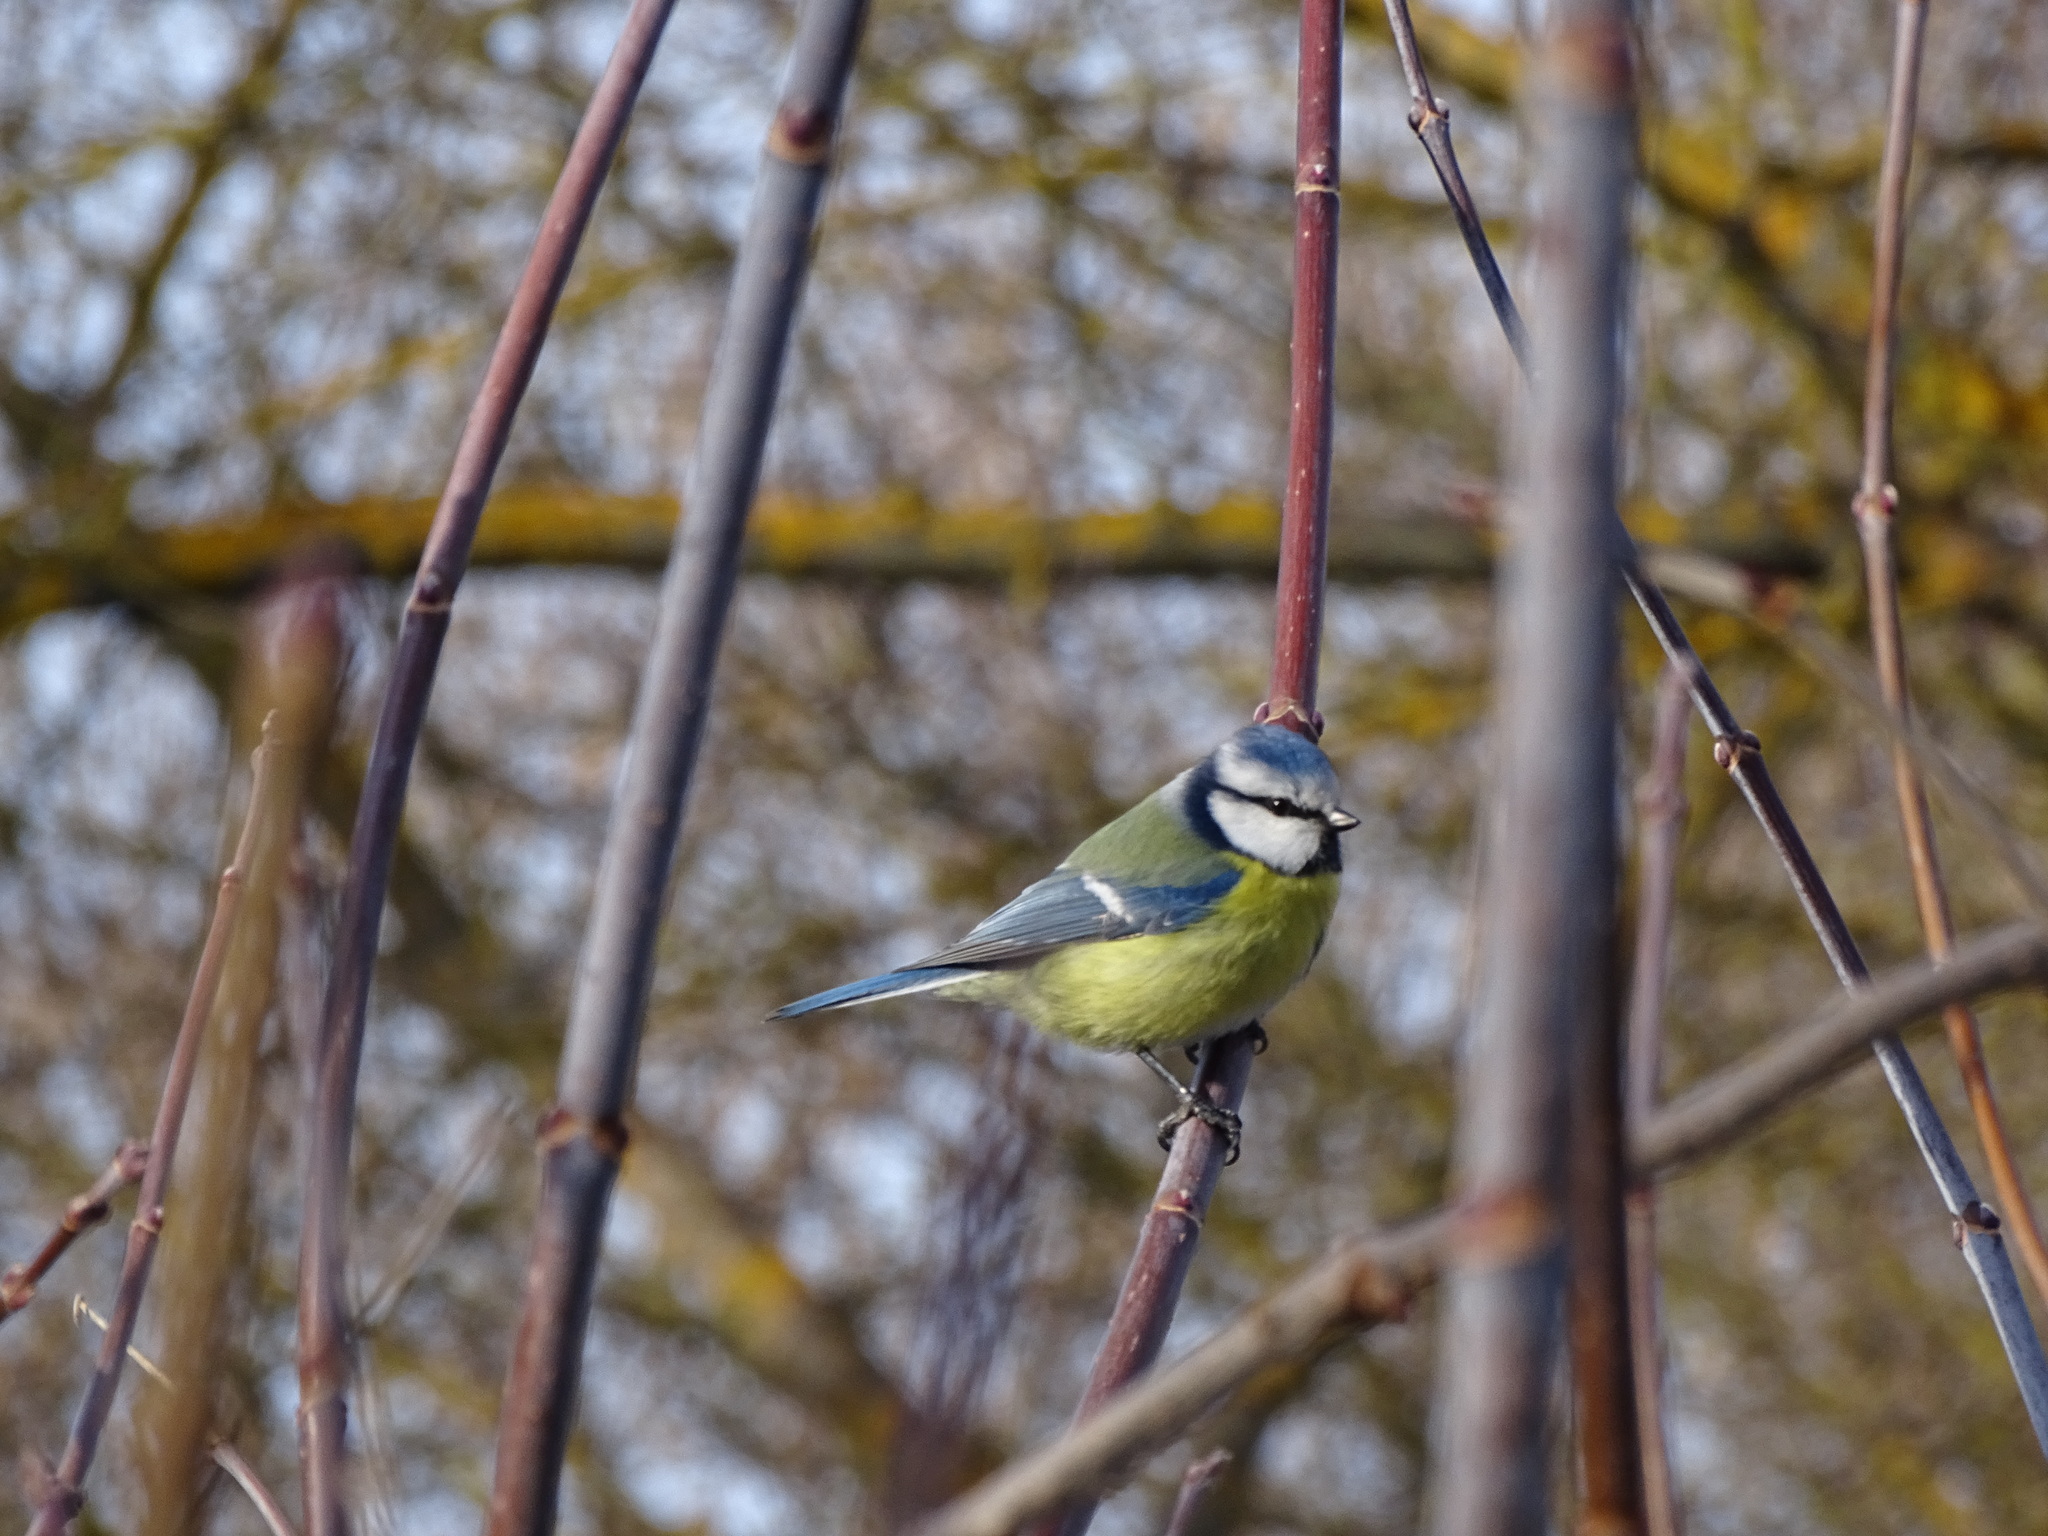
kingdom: Animalia
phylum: Chordata
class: Aves
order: Passeriformes
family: Paridae
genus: Cyanistes
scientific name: Cyanistes caeruleus
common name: Eurasian blue tit
